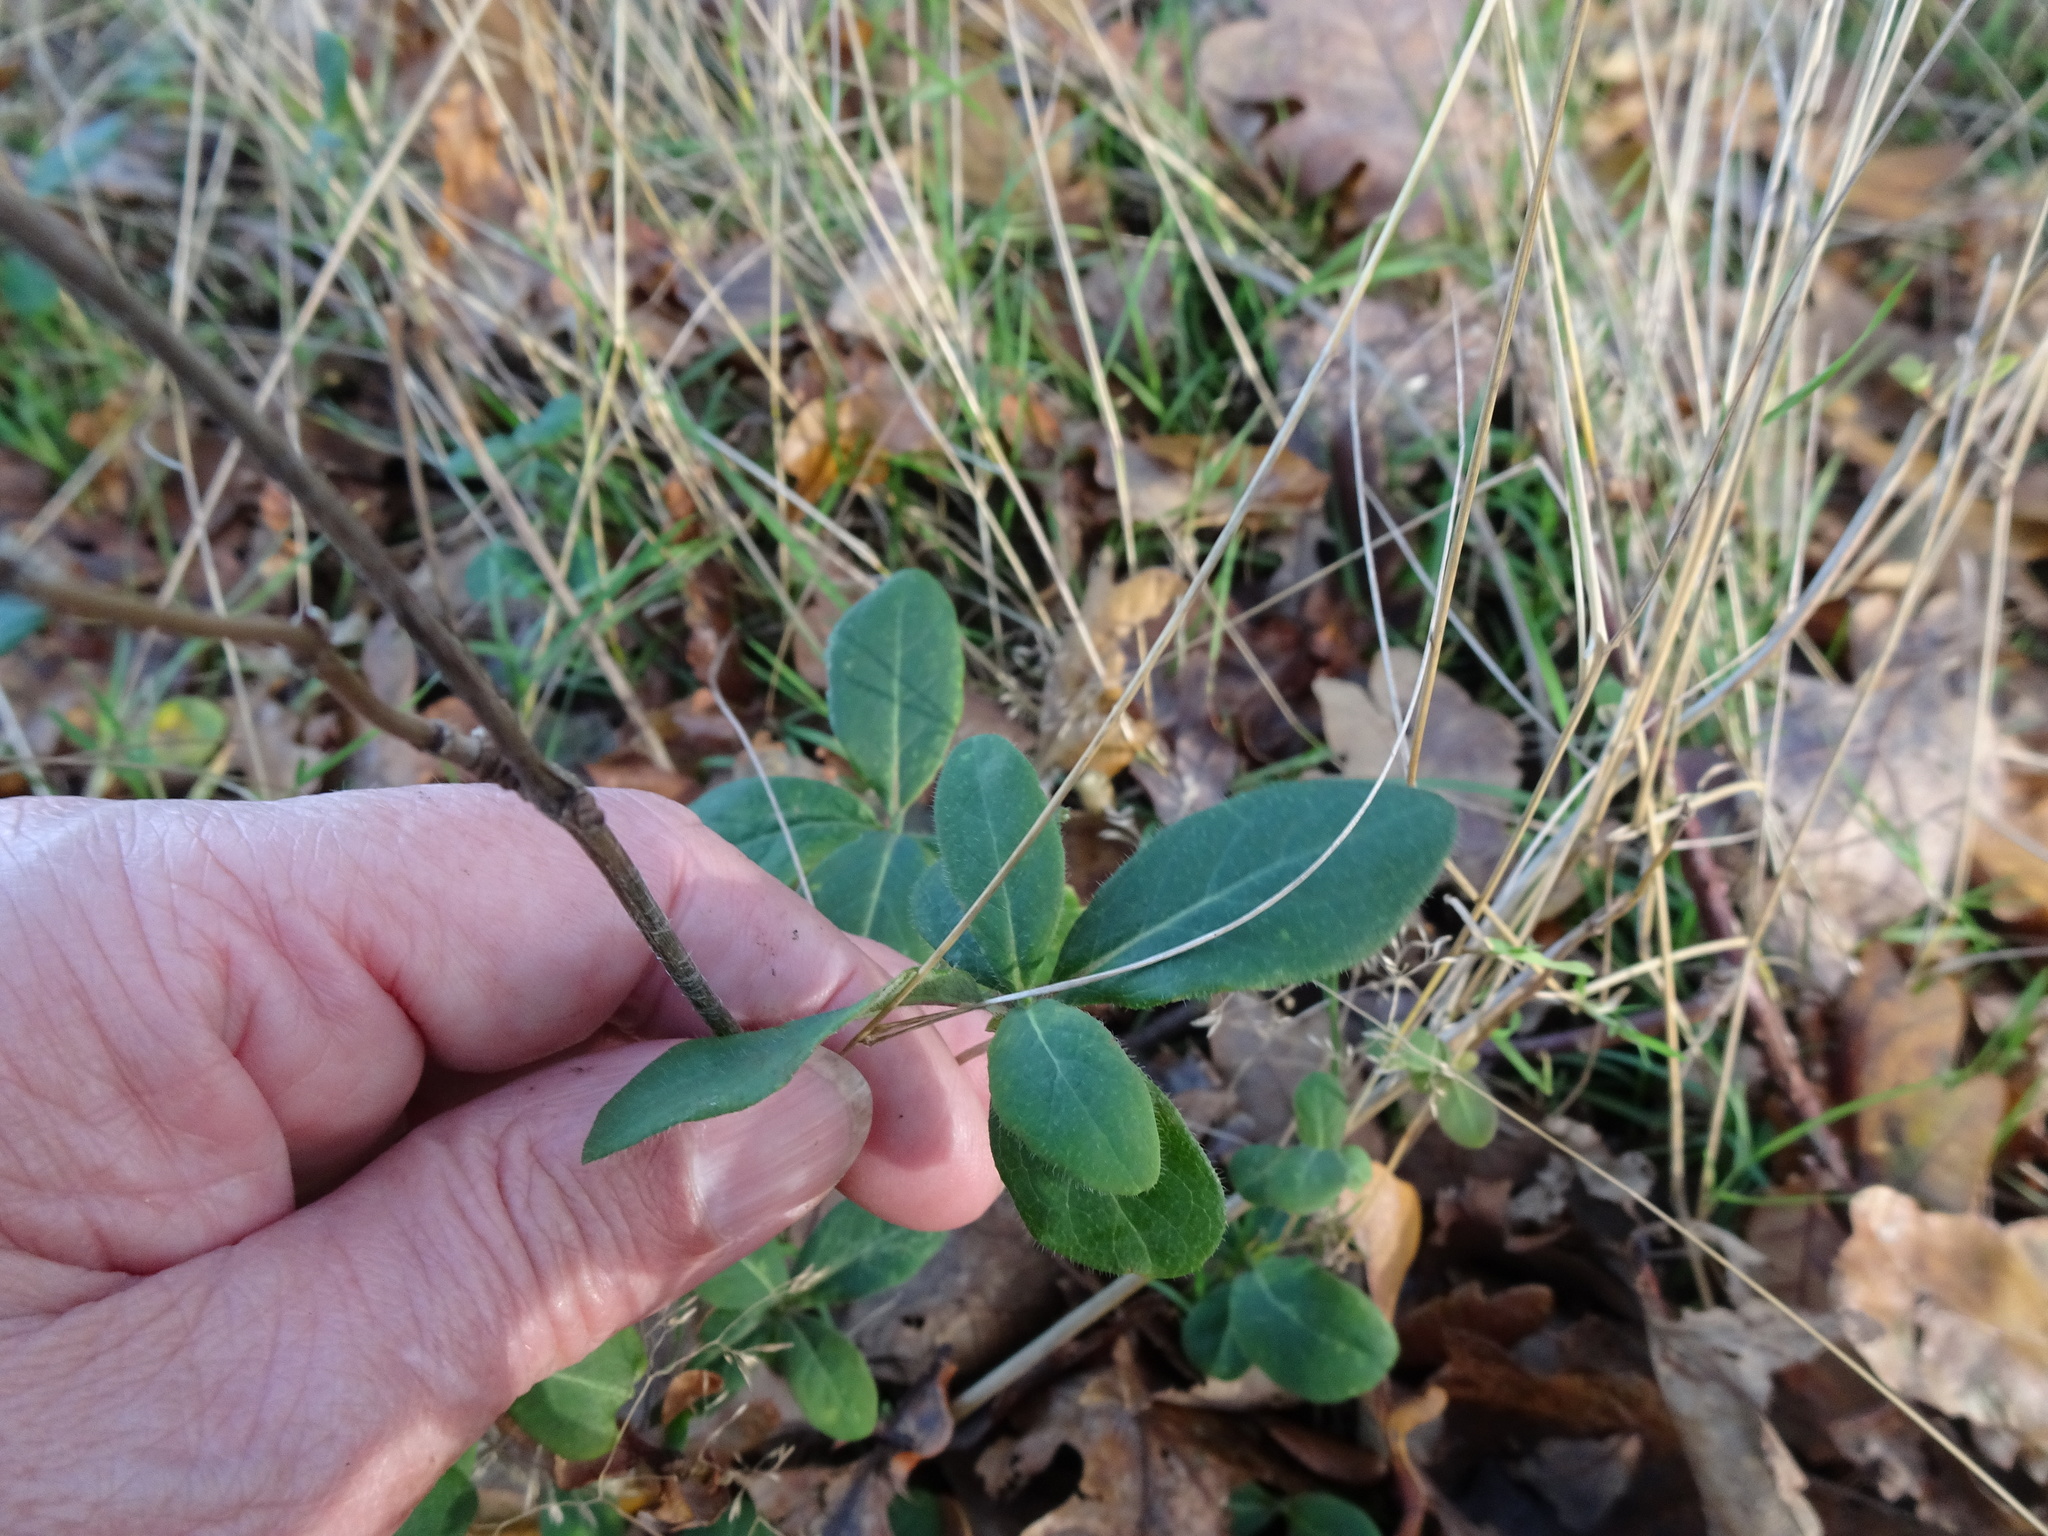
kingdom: Plantae
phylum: Tracheophyta
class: Magnoliopsida
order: Dipsacales
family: Caprifoliaceae
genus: Lonicera
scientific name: Lonicera periclymenum
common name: European honeysuckle
